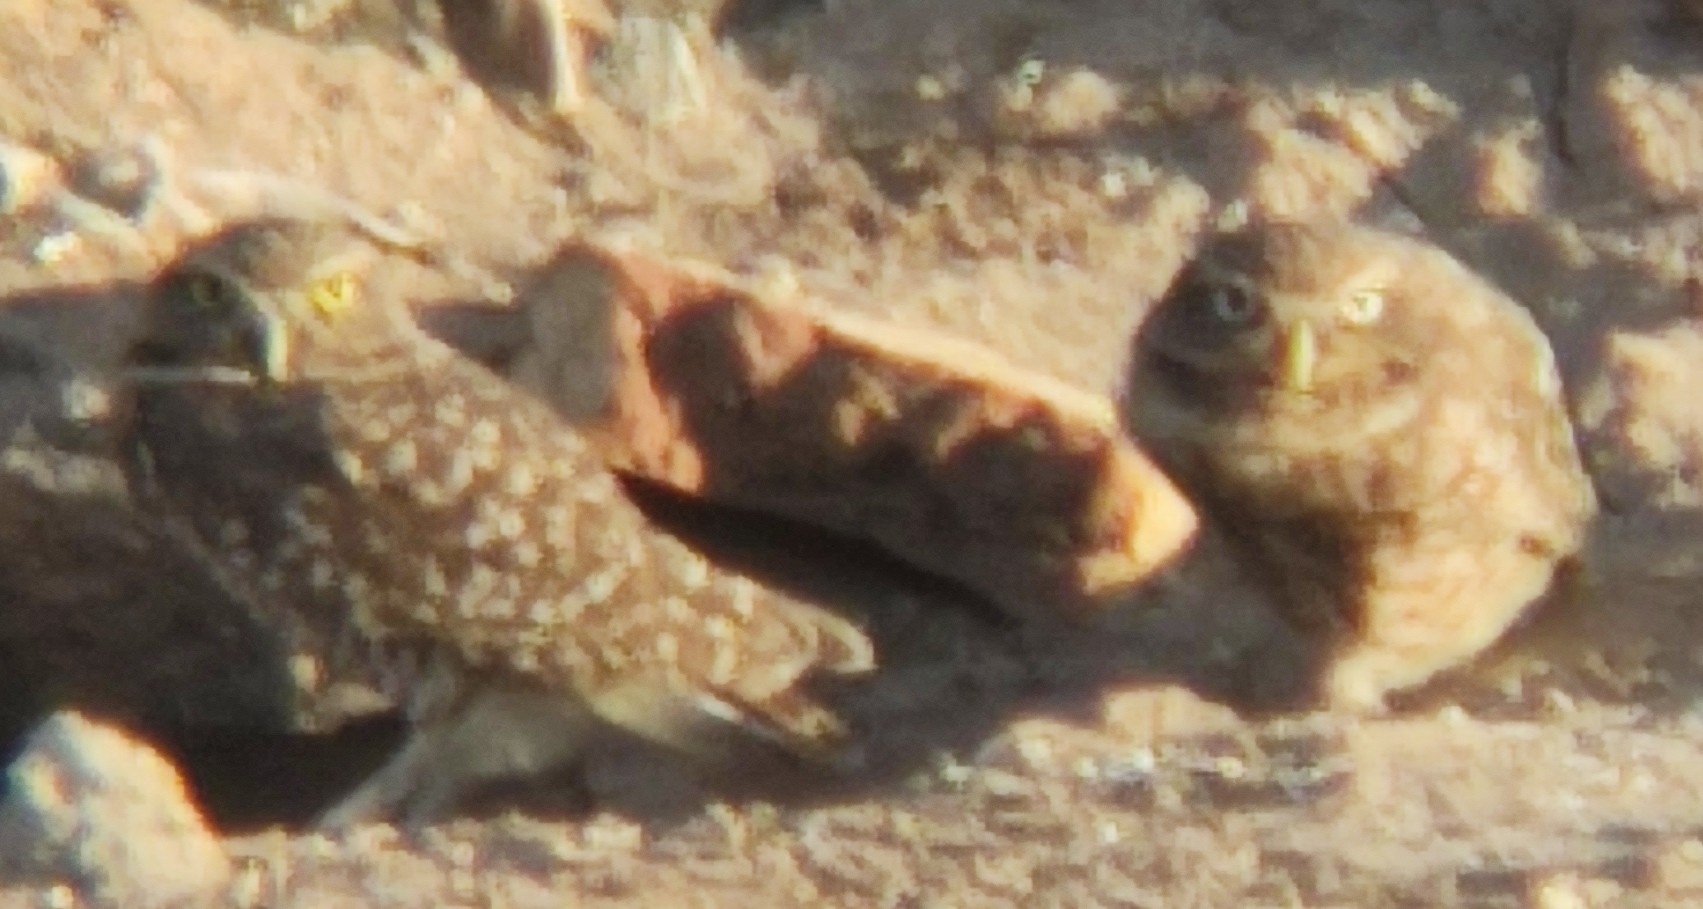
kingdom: Animalia
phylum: Chordata
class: Aves
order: Strigiformes
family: Strigidae
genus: Athene
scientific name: Athene cunicularia
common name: Burrowing owl
